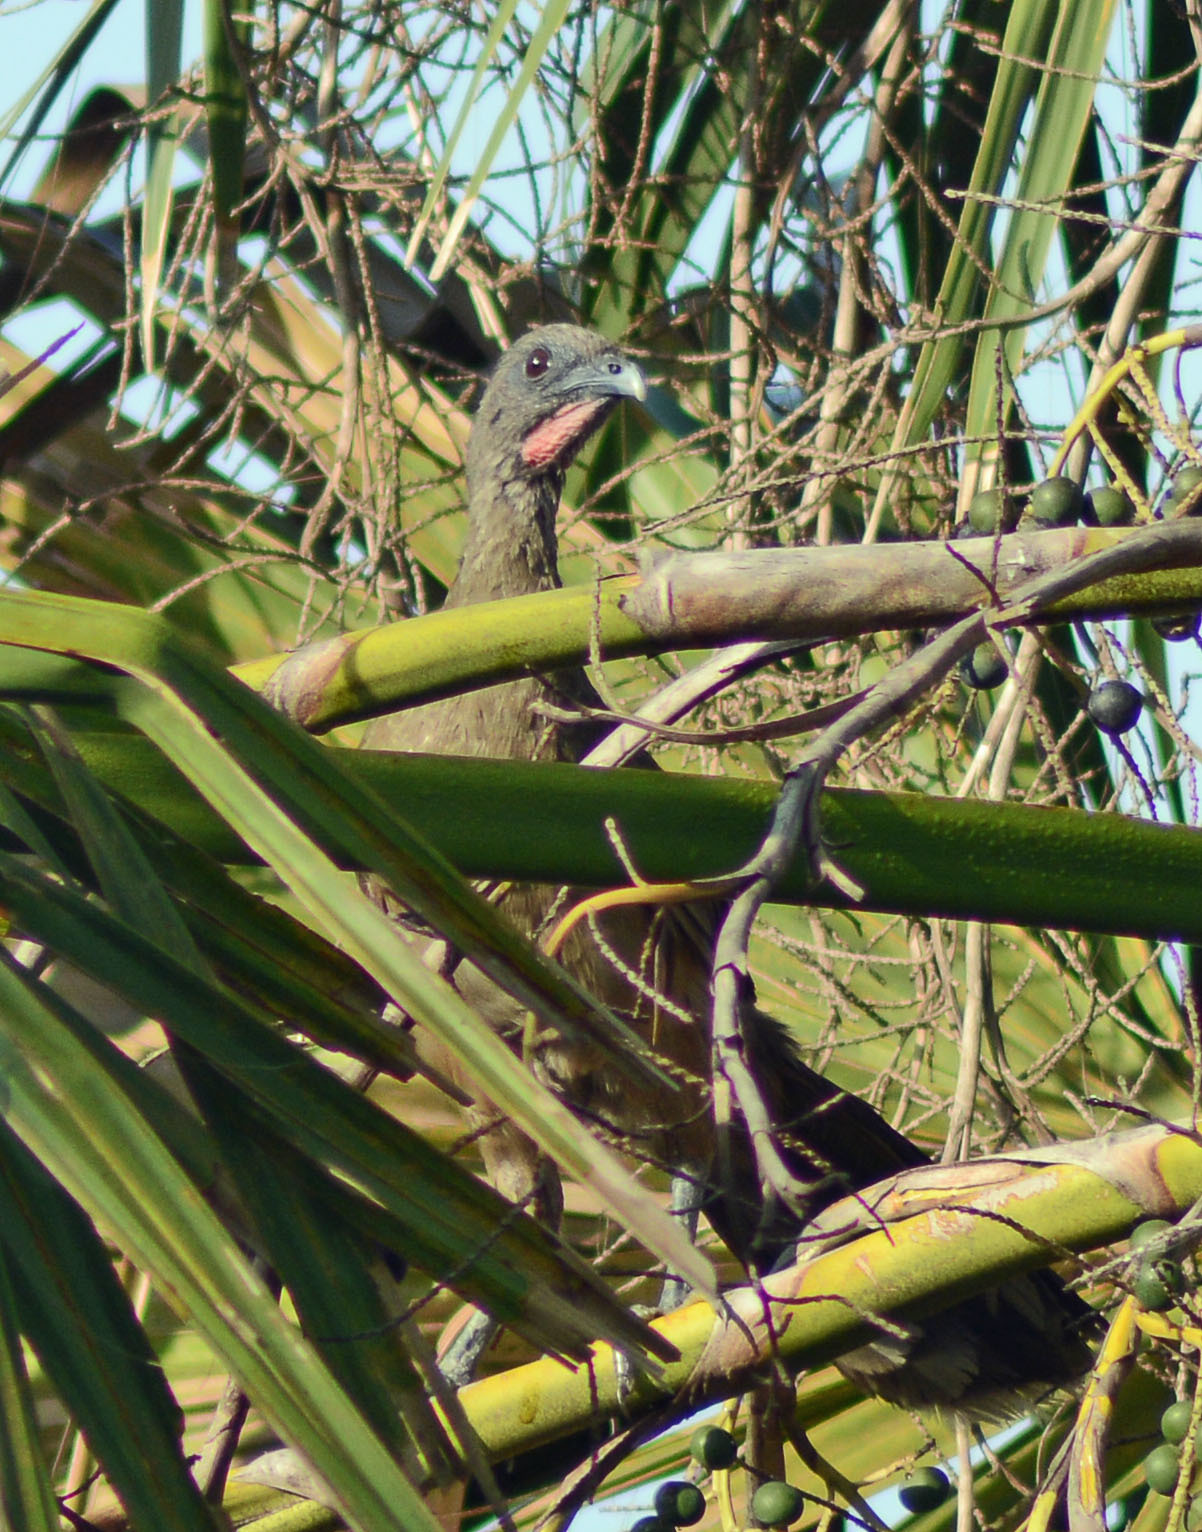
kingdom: Animalia
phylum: Chordata
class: Aves
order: Galliformes
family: Cracidae
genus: Ortalis
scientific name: Ortalis vetula
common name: Plain chachalaca
